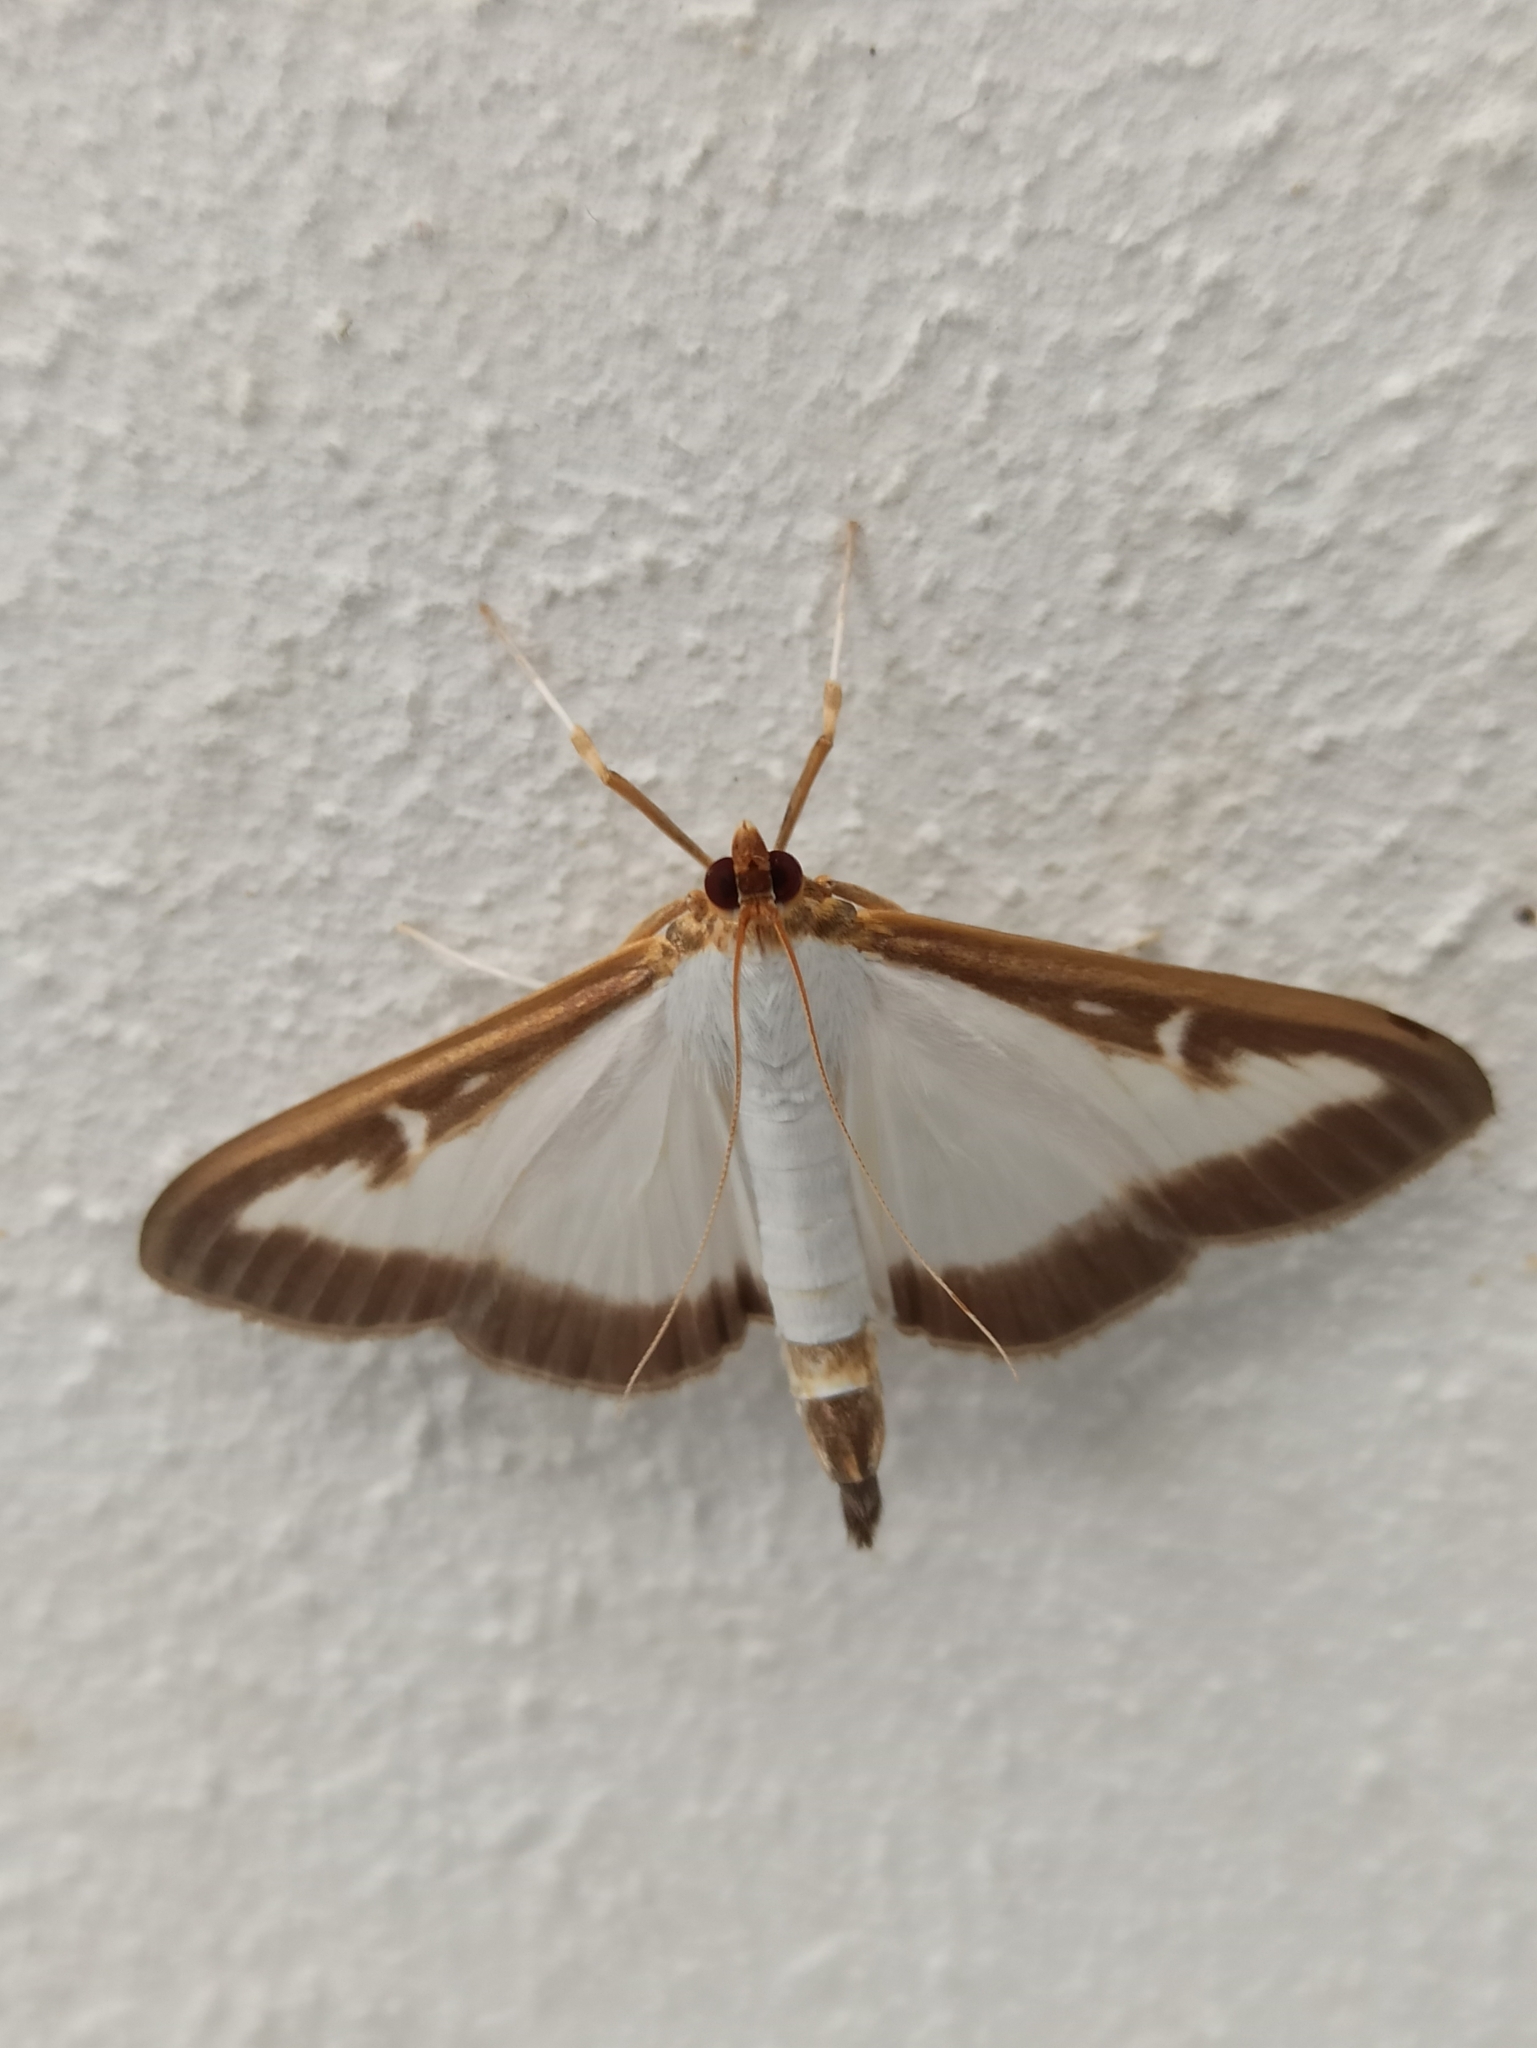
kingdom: Animalia
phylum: Arthropoda
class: Insecta
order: Lepidoptera
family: Crambidae
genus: Cydalima
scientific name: Cydalima perspectalis
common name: Box tree moth
